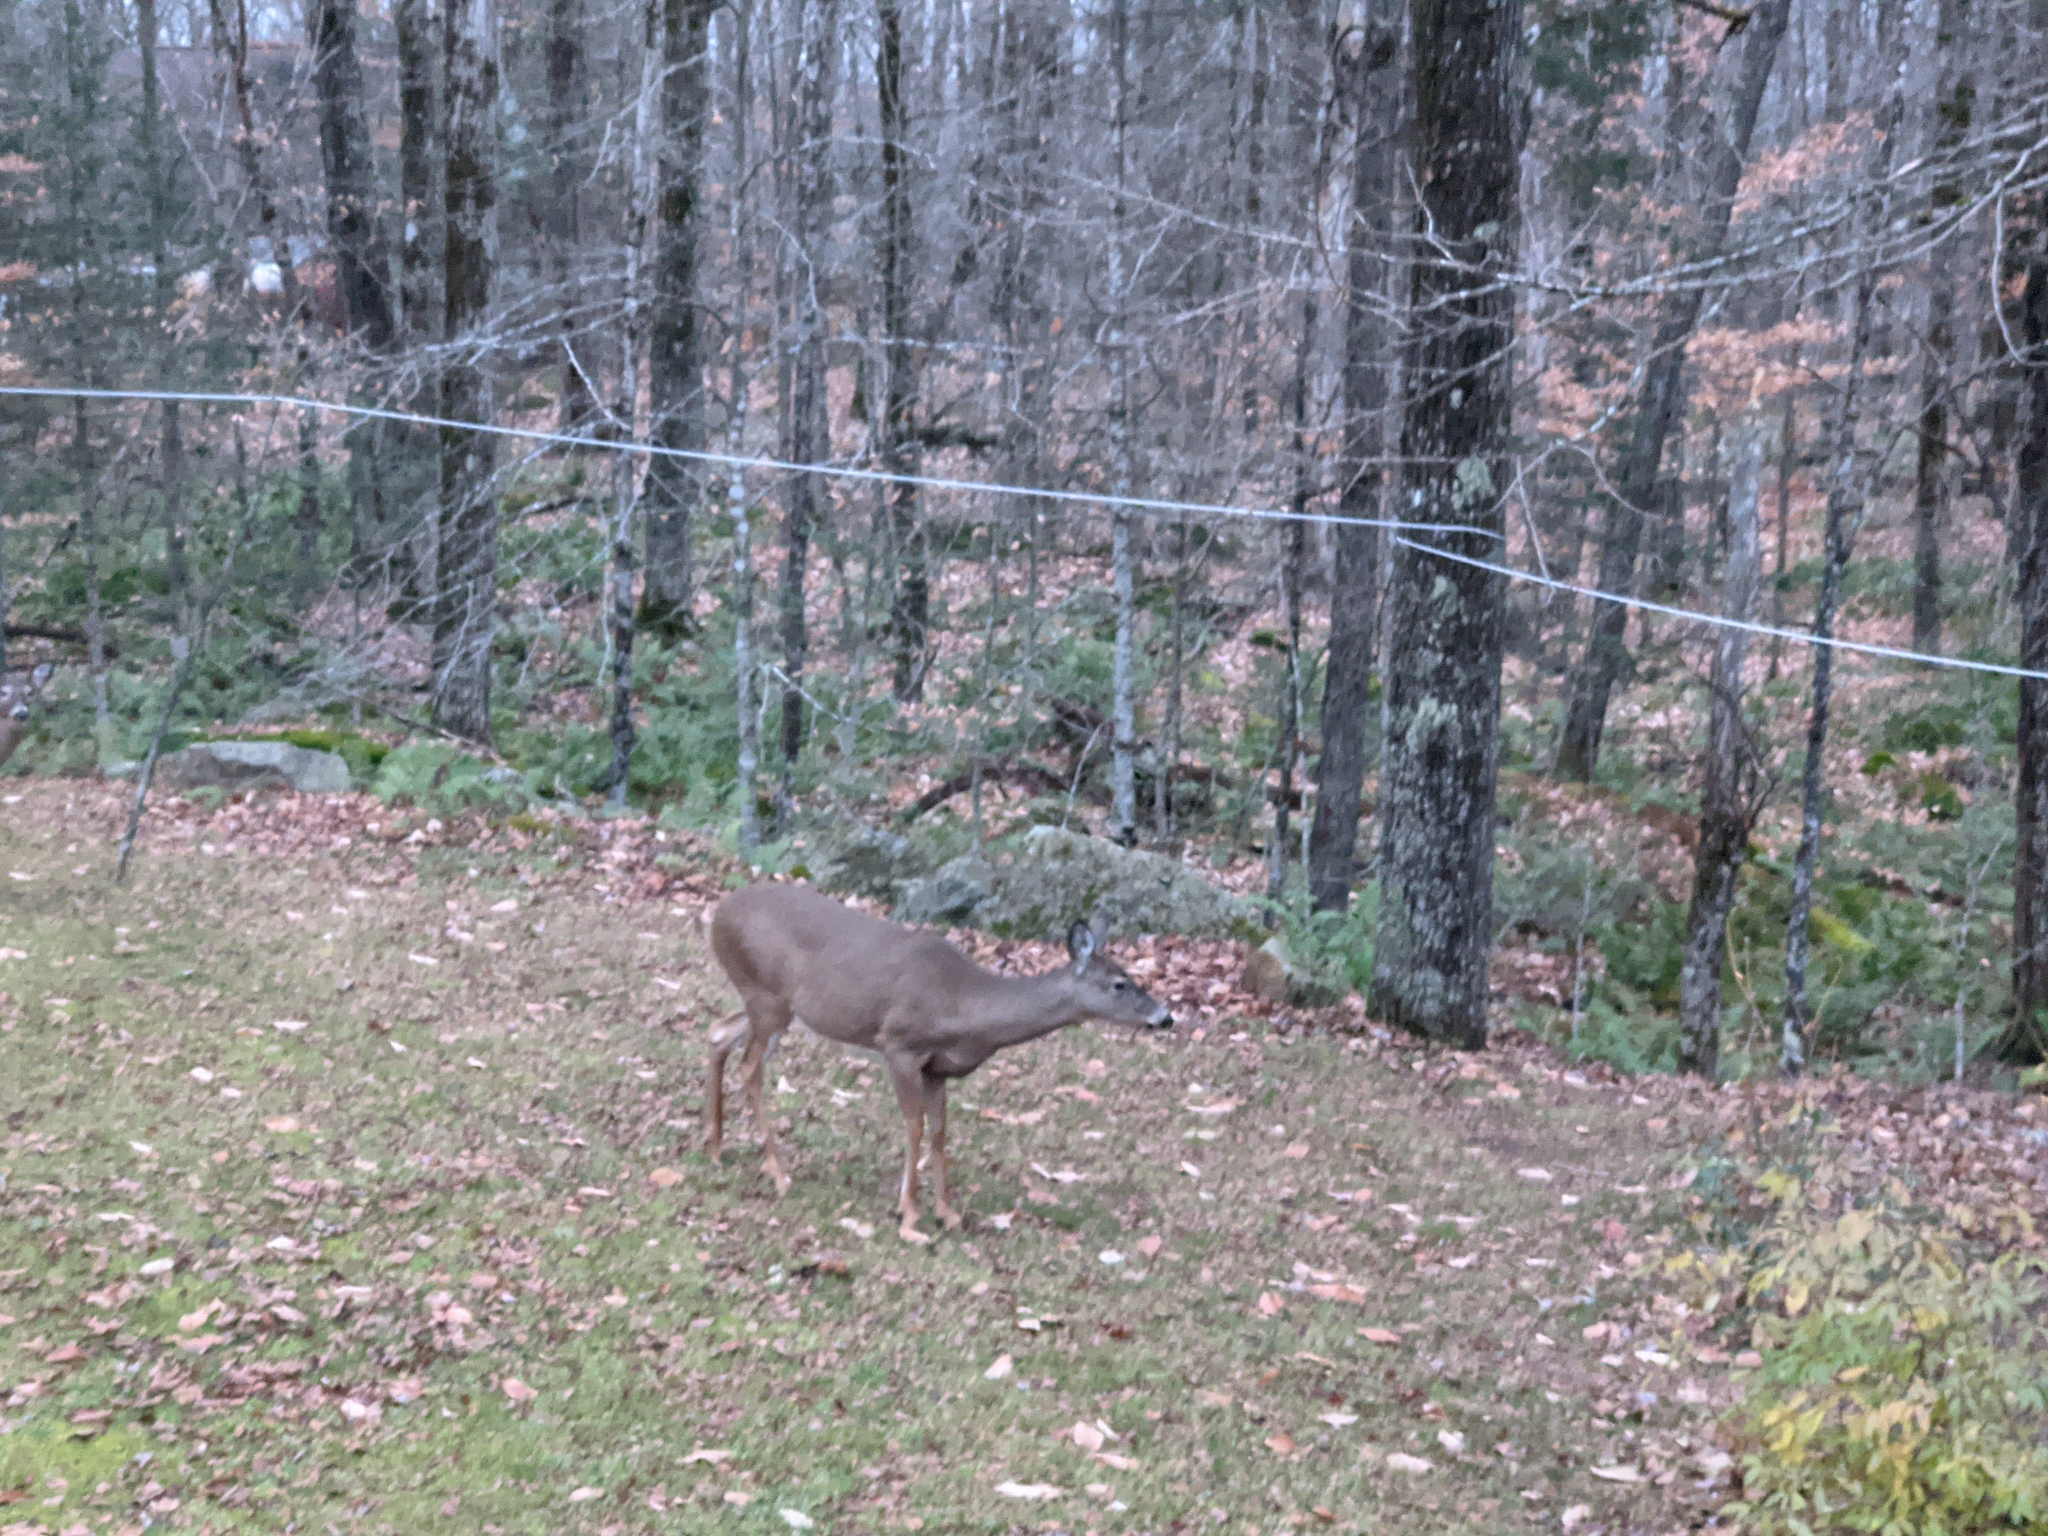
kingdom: Animalia
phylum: Chordata
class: Mammalia
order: Artiodactyla
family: Cervidae
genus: Odocoileus
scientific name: Odocoileus virginianus
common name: White-tailed deer
